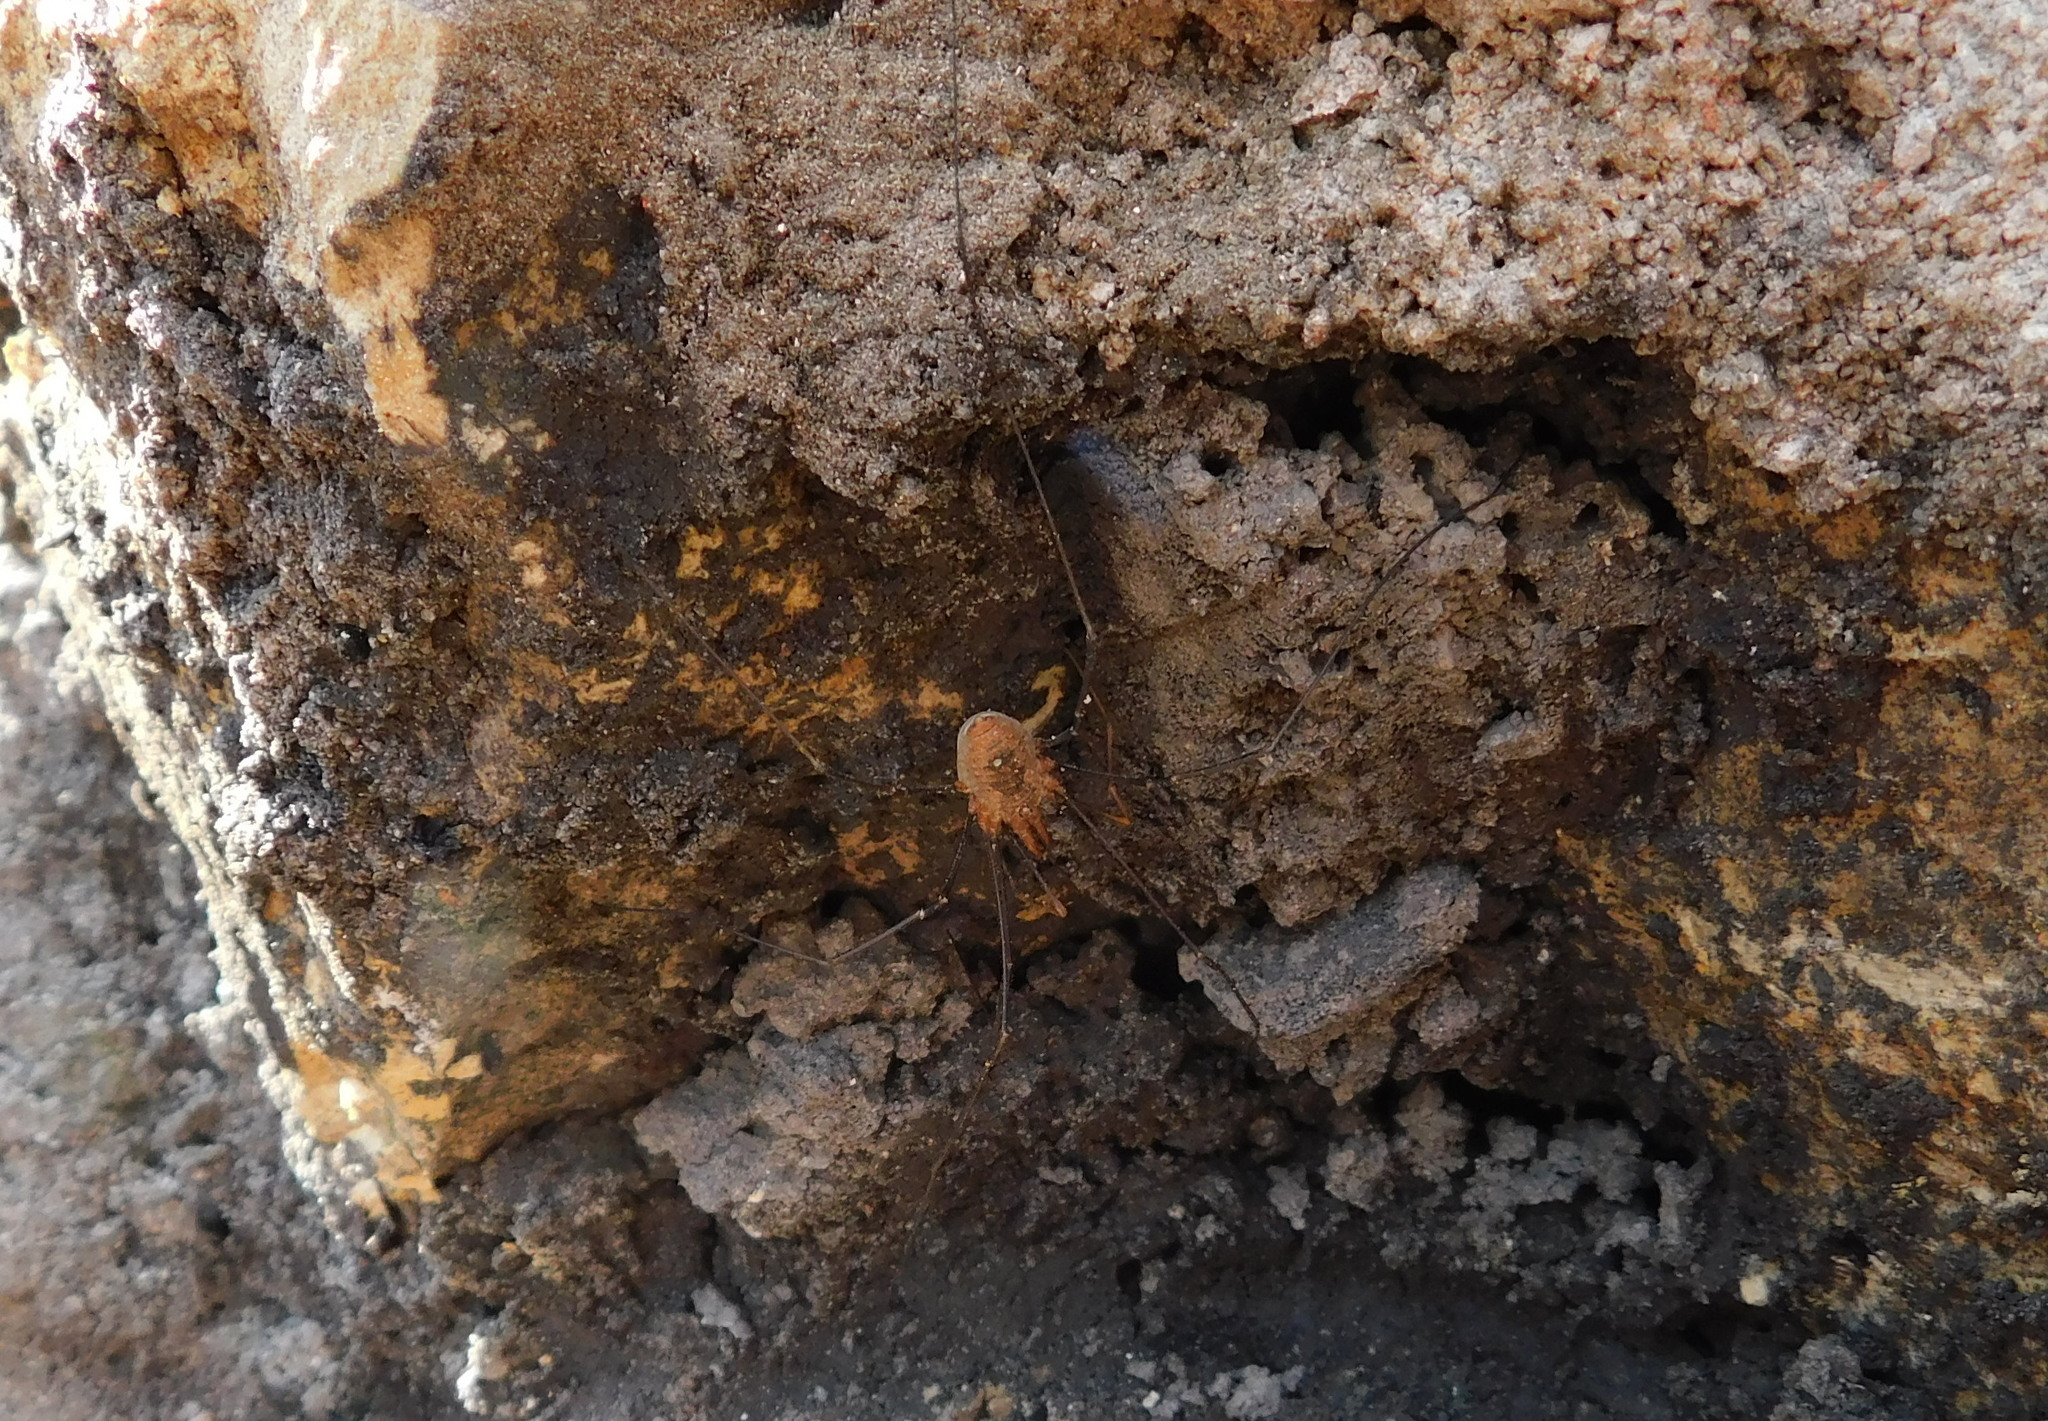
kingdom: Animalia
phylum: Arthropoda
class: Arachnida
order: Opiliones
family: Phalangiidae
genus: Phalangium
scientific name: Phalangium opilio
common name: Daddy longleg
